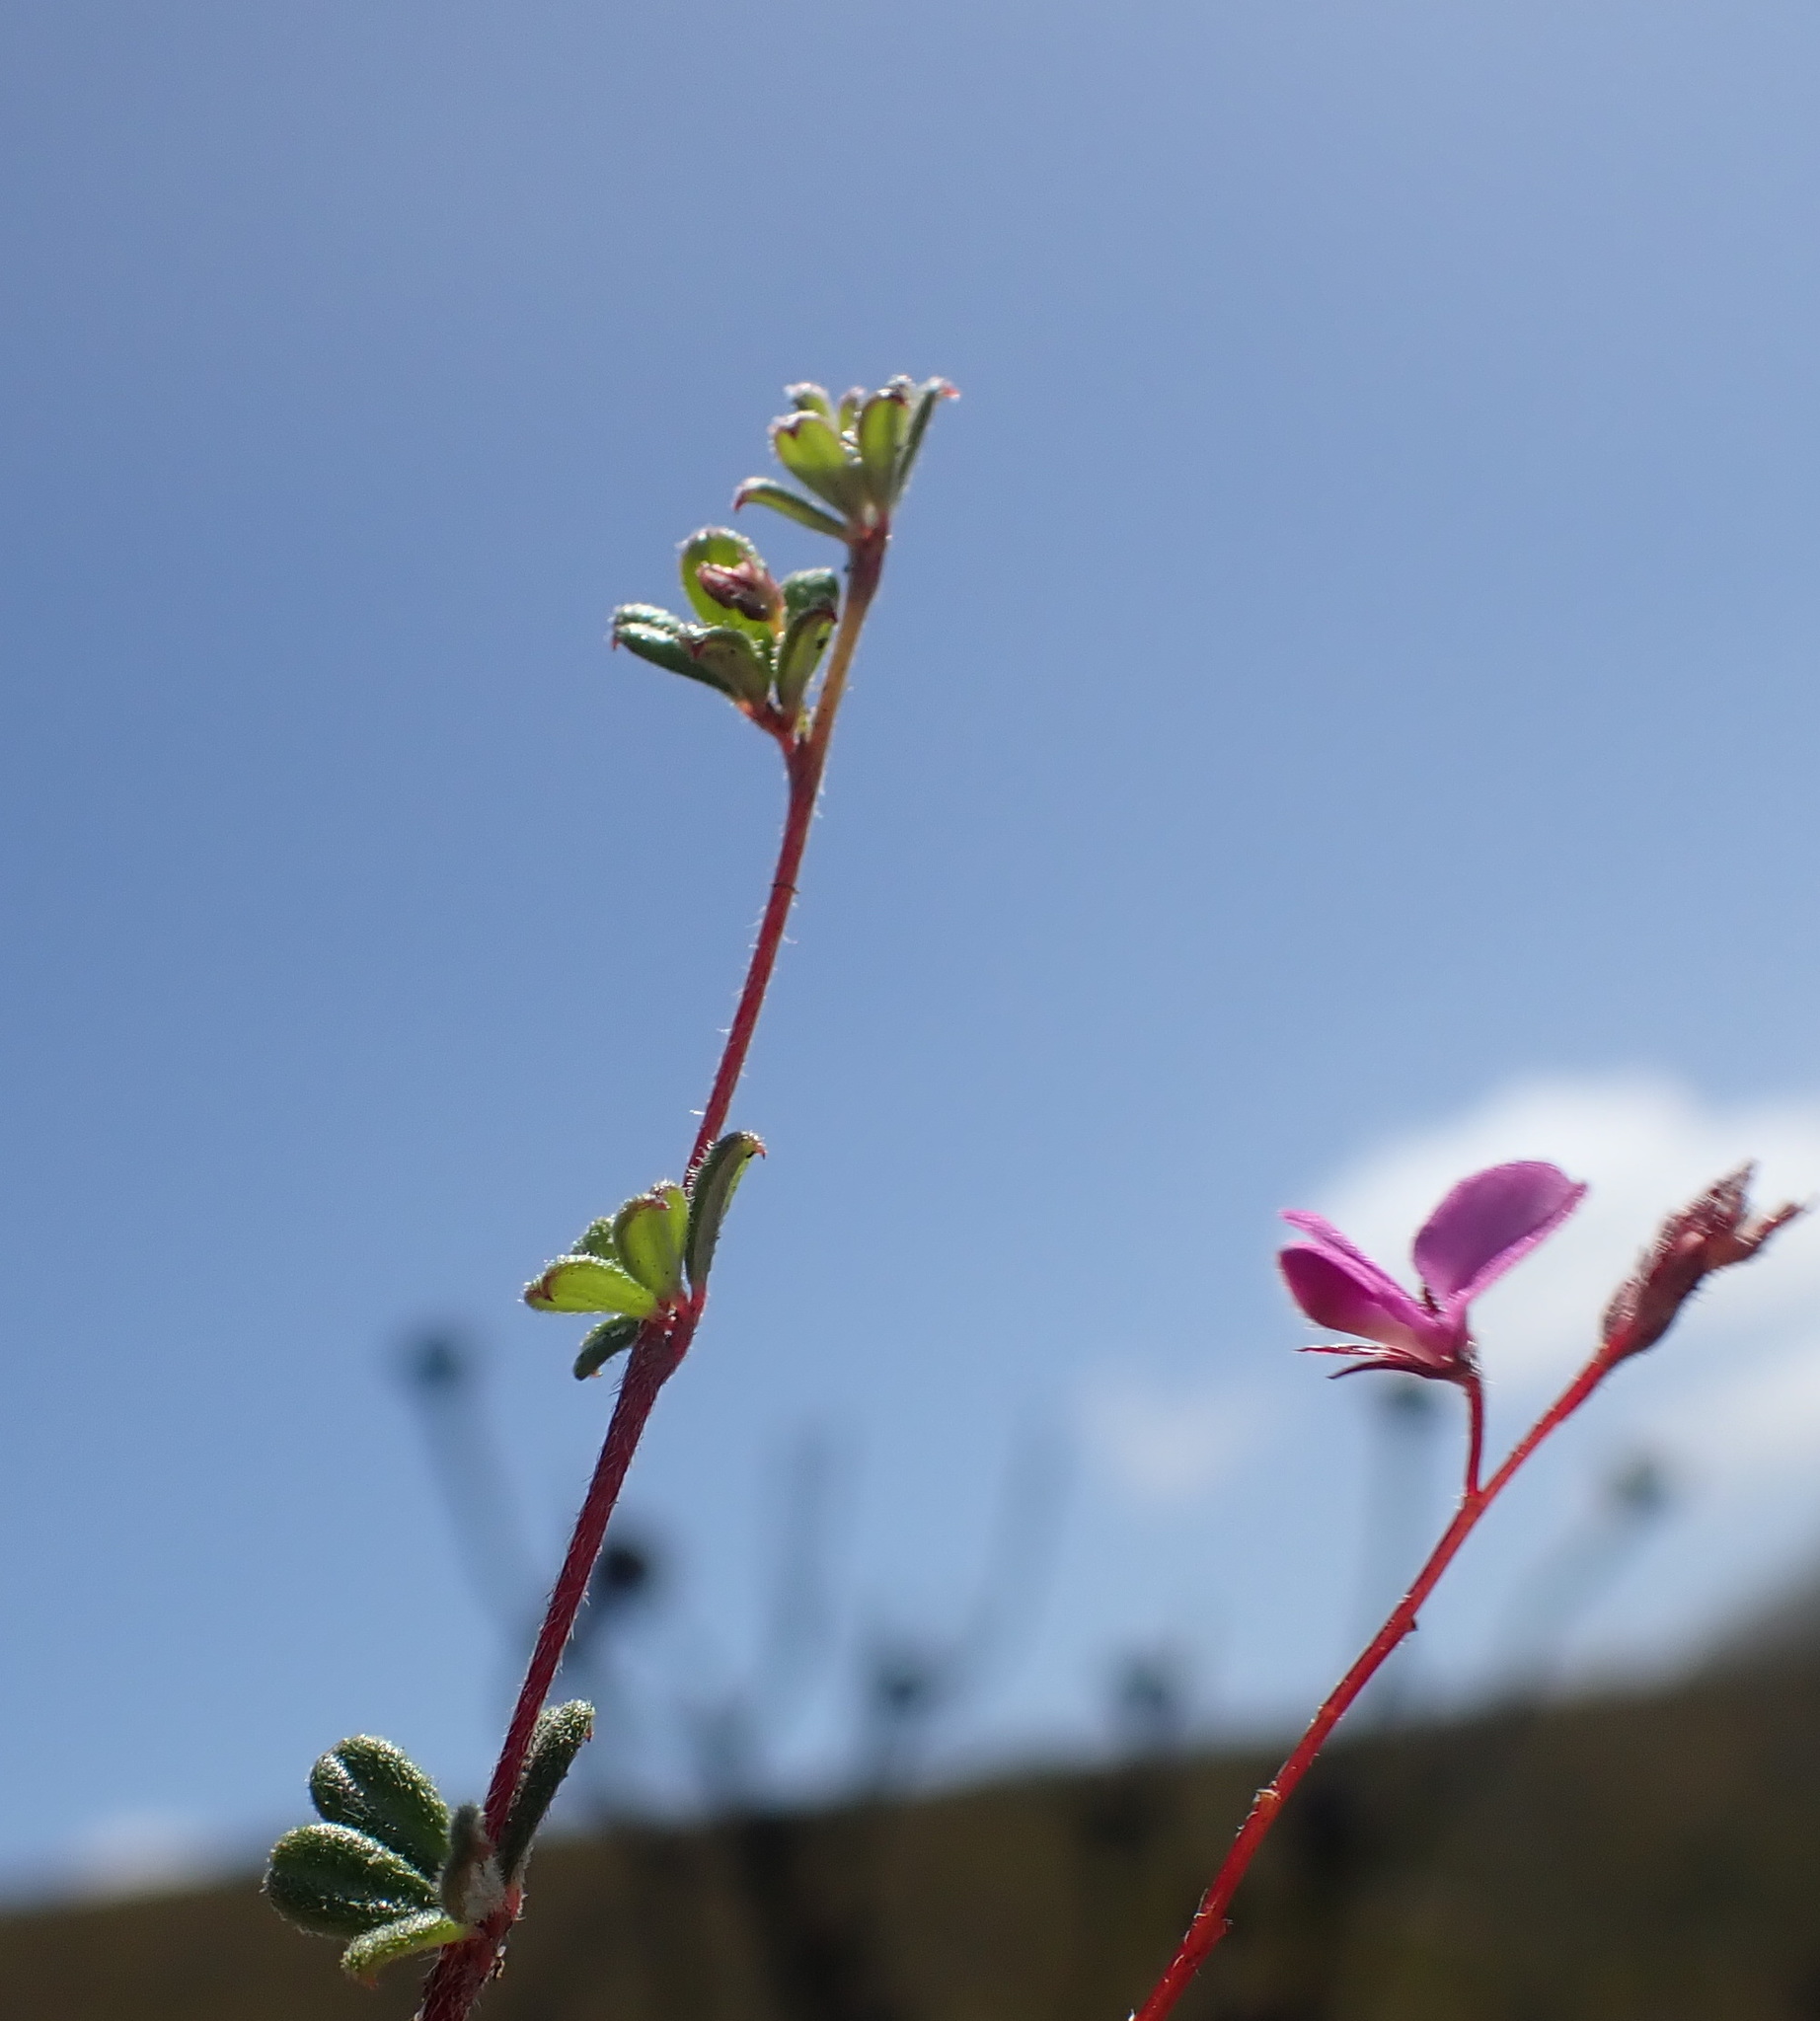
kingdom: Plantae
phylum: Tracheophyta
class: Magnoliopsida
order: Fabales
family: Fabaceae
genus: Indigofera
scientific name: Indigofera
